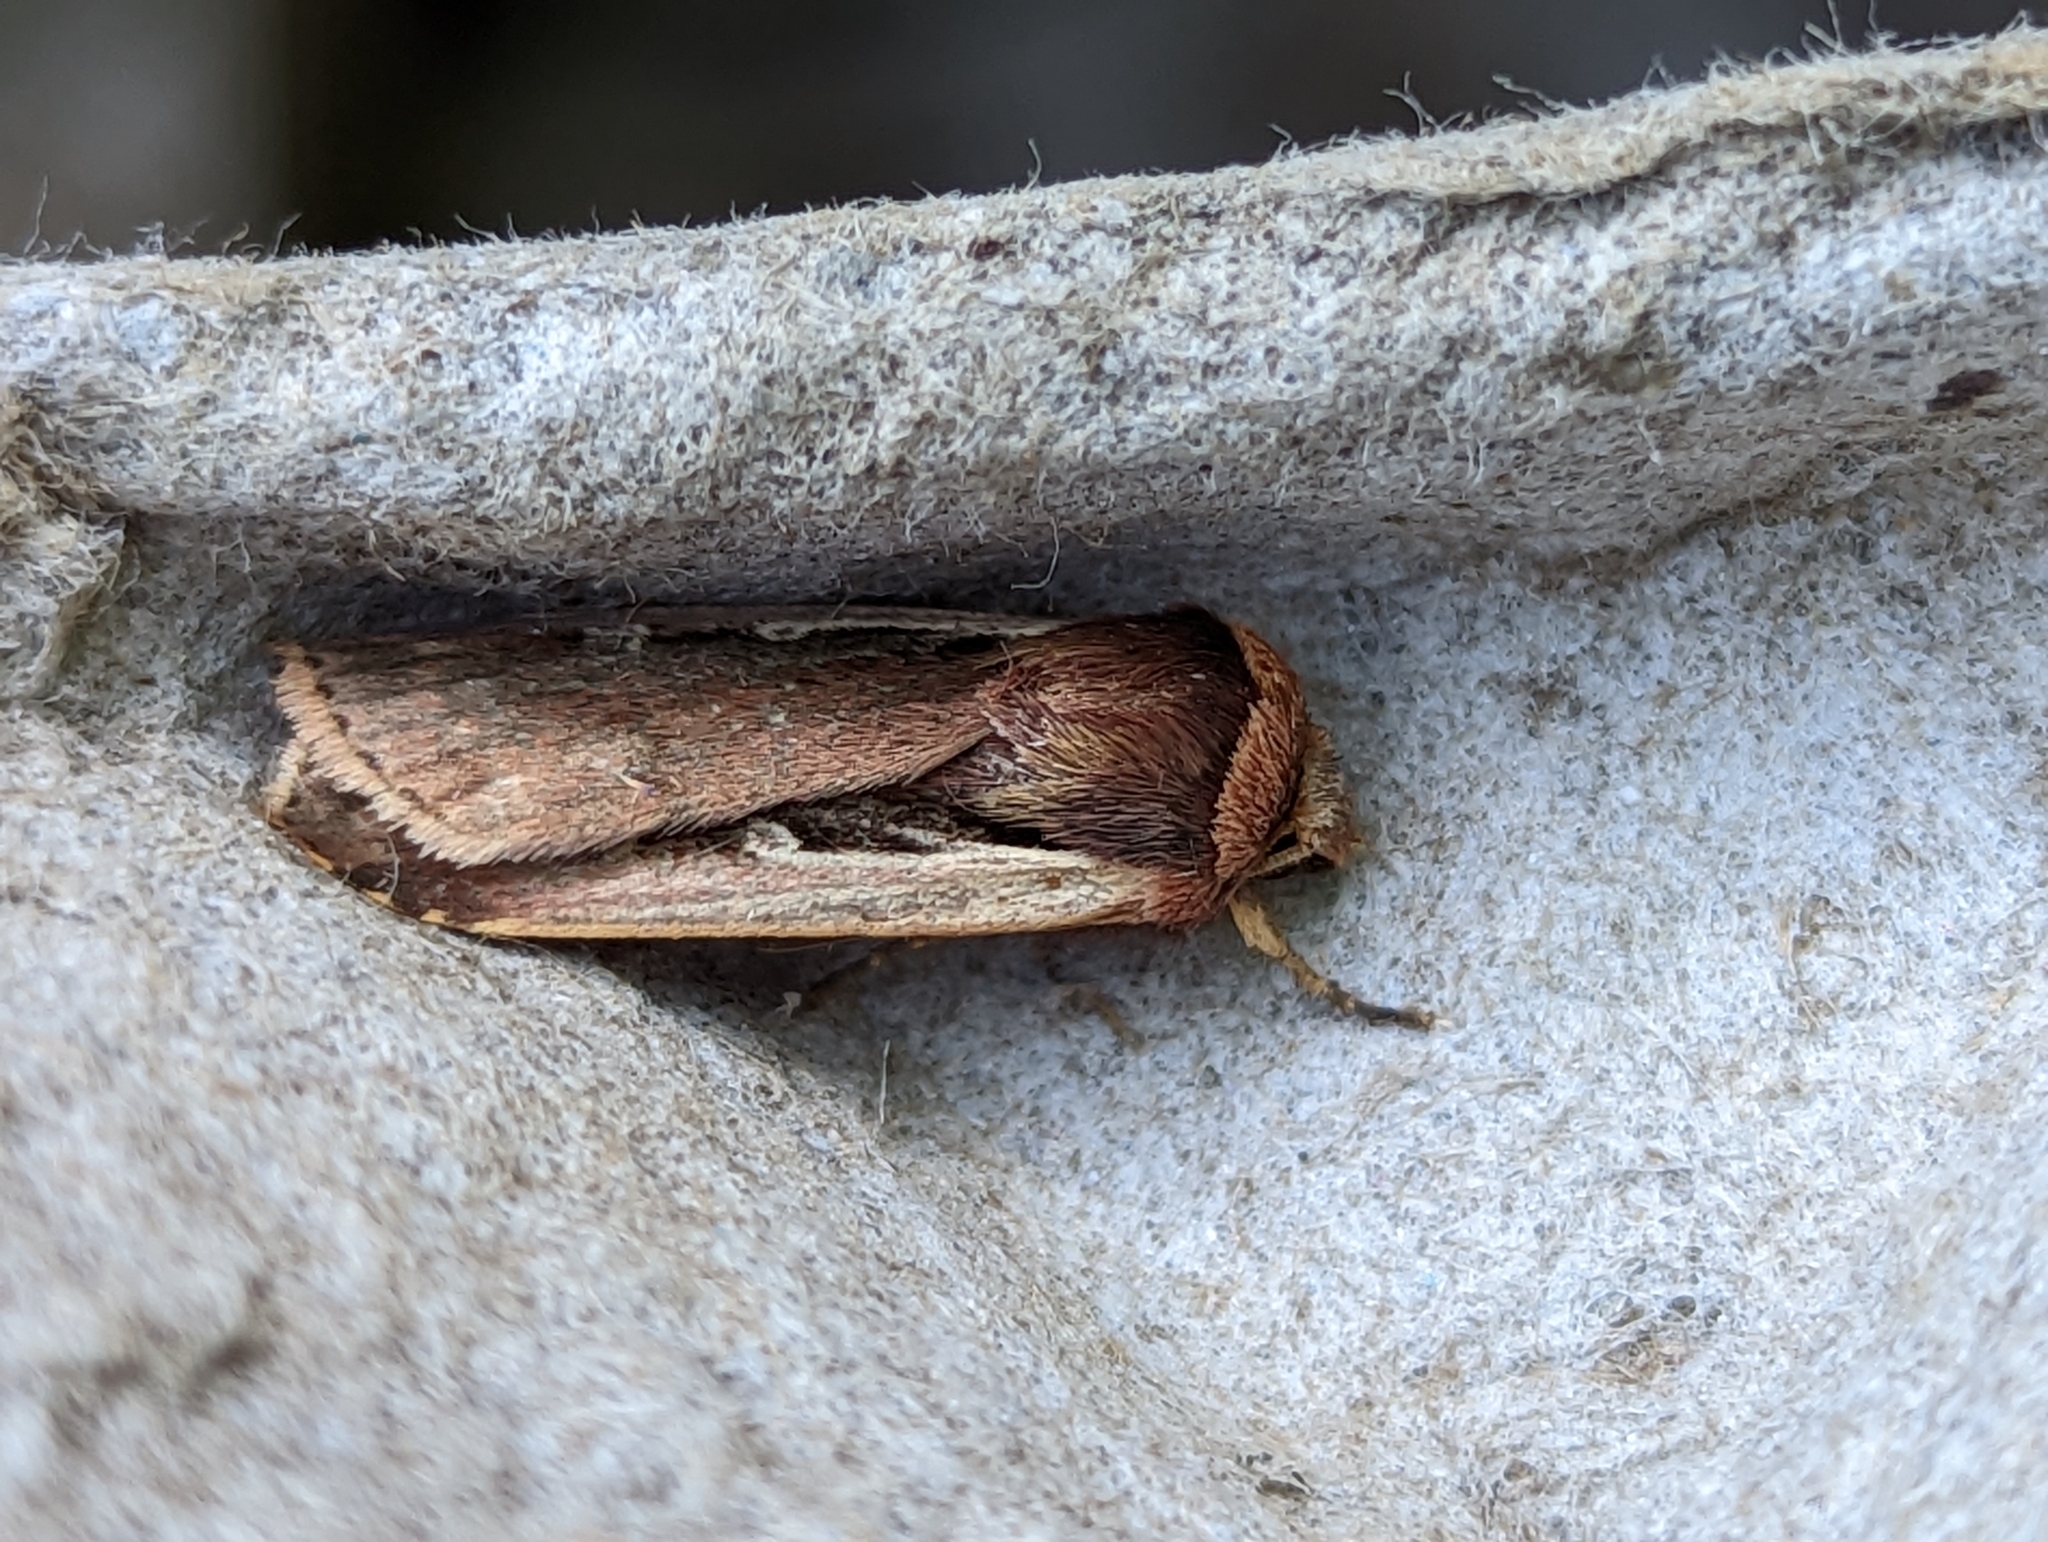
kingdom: Animalia
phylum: Arthropoda
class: Insecta
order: Lepidoptera
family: Noctuidae
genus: Ochropleura
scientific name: Ochropleura plecta
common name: Flame shoulder
